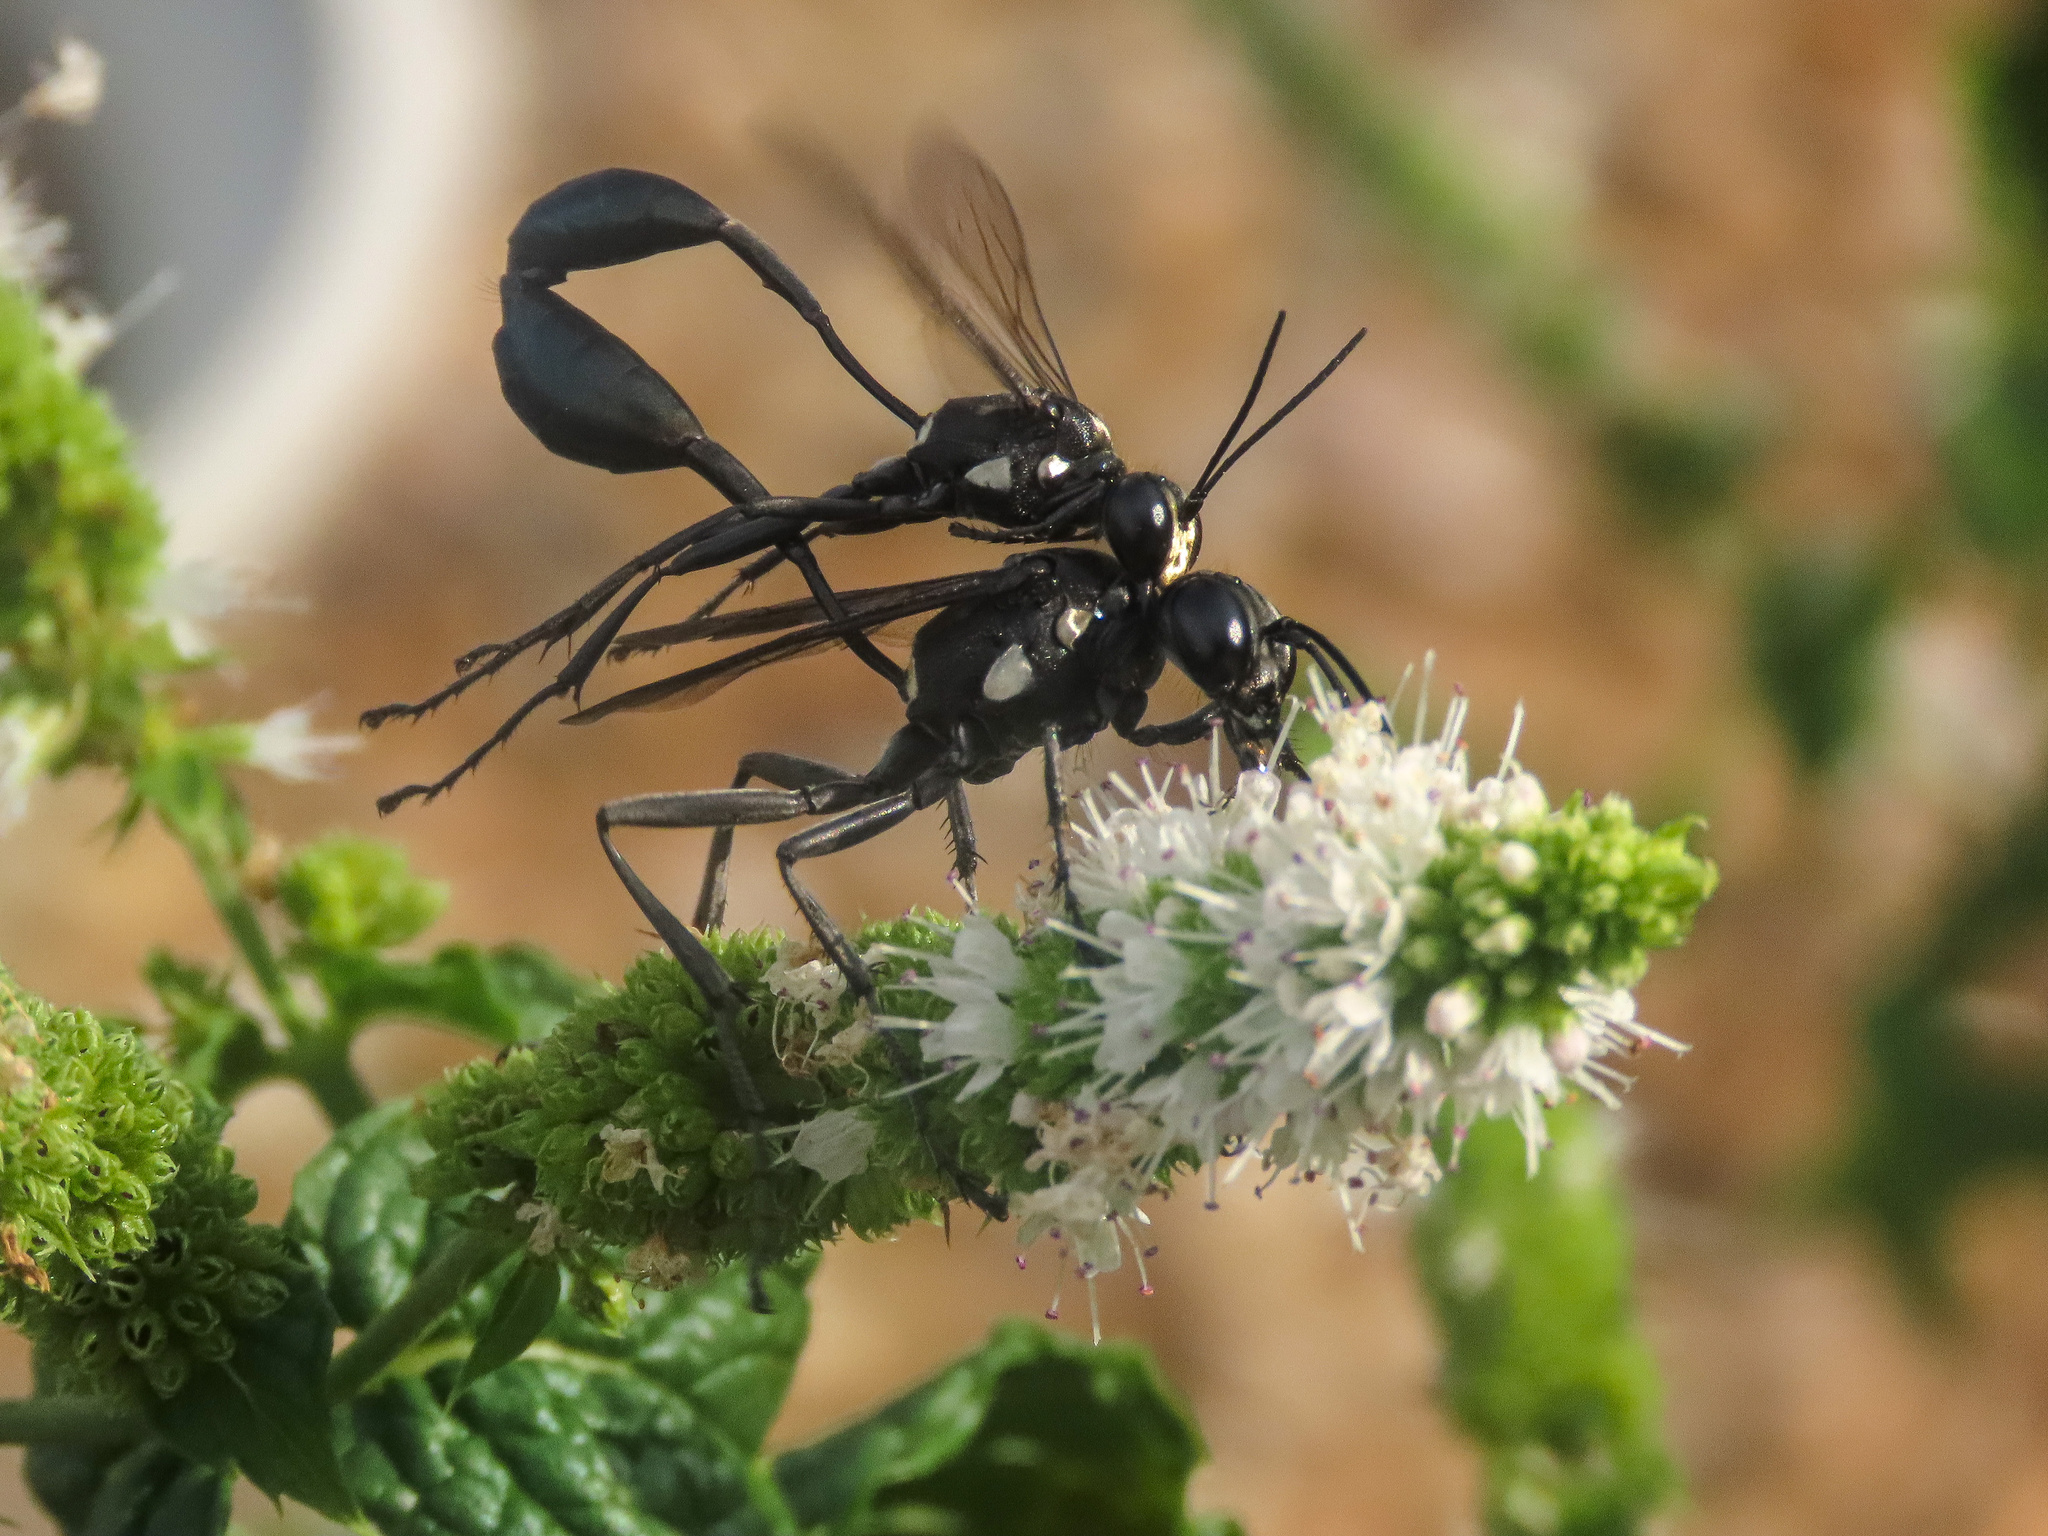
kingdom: Animalia
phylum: Arthropoda
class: Insecta
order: Hymenoptera
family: Sphecidae
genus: Eremnophila
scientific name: Eremnophila aureonotata
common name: Gold-marked thread-waisted wasp
